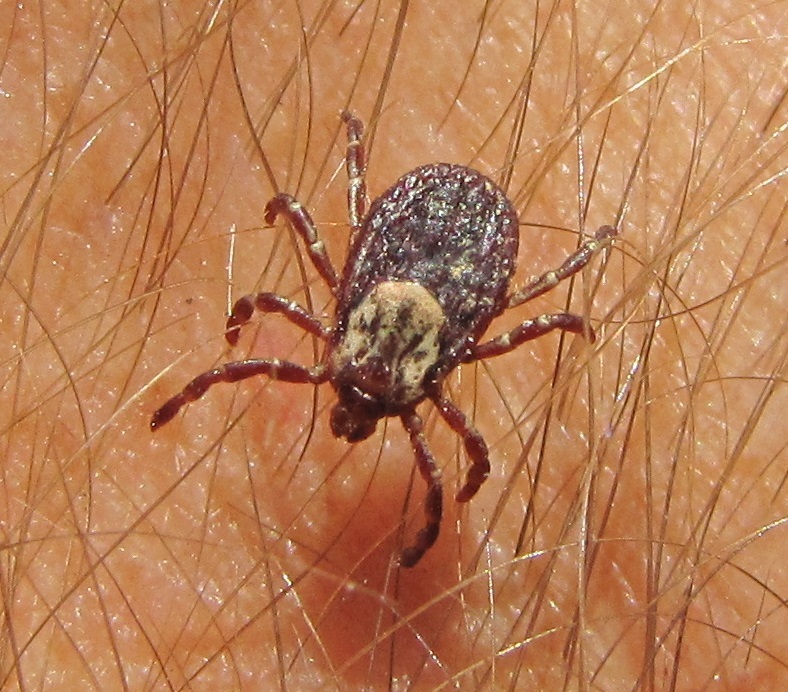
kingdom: Animalia
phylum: Arthropoda
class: Arachnida
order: Ixodida
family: Ixodidae
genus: Dermacentor
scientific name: Dermacentor variabilis
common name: American dog tick
